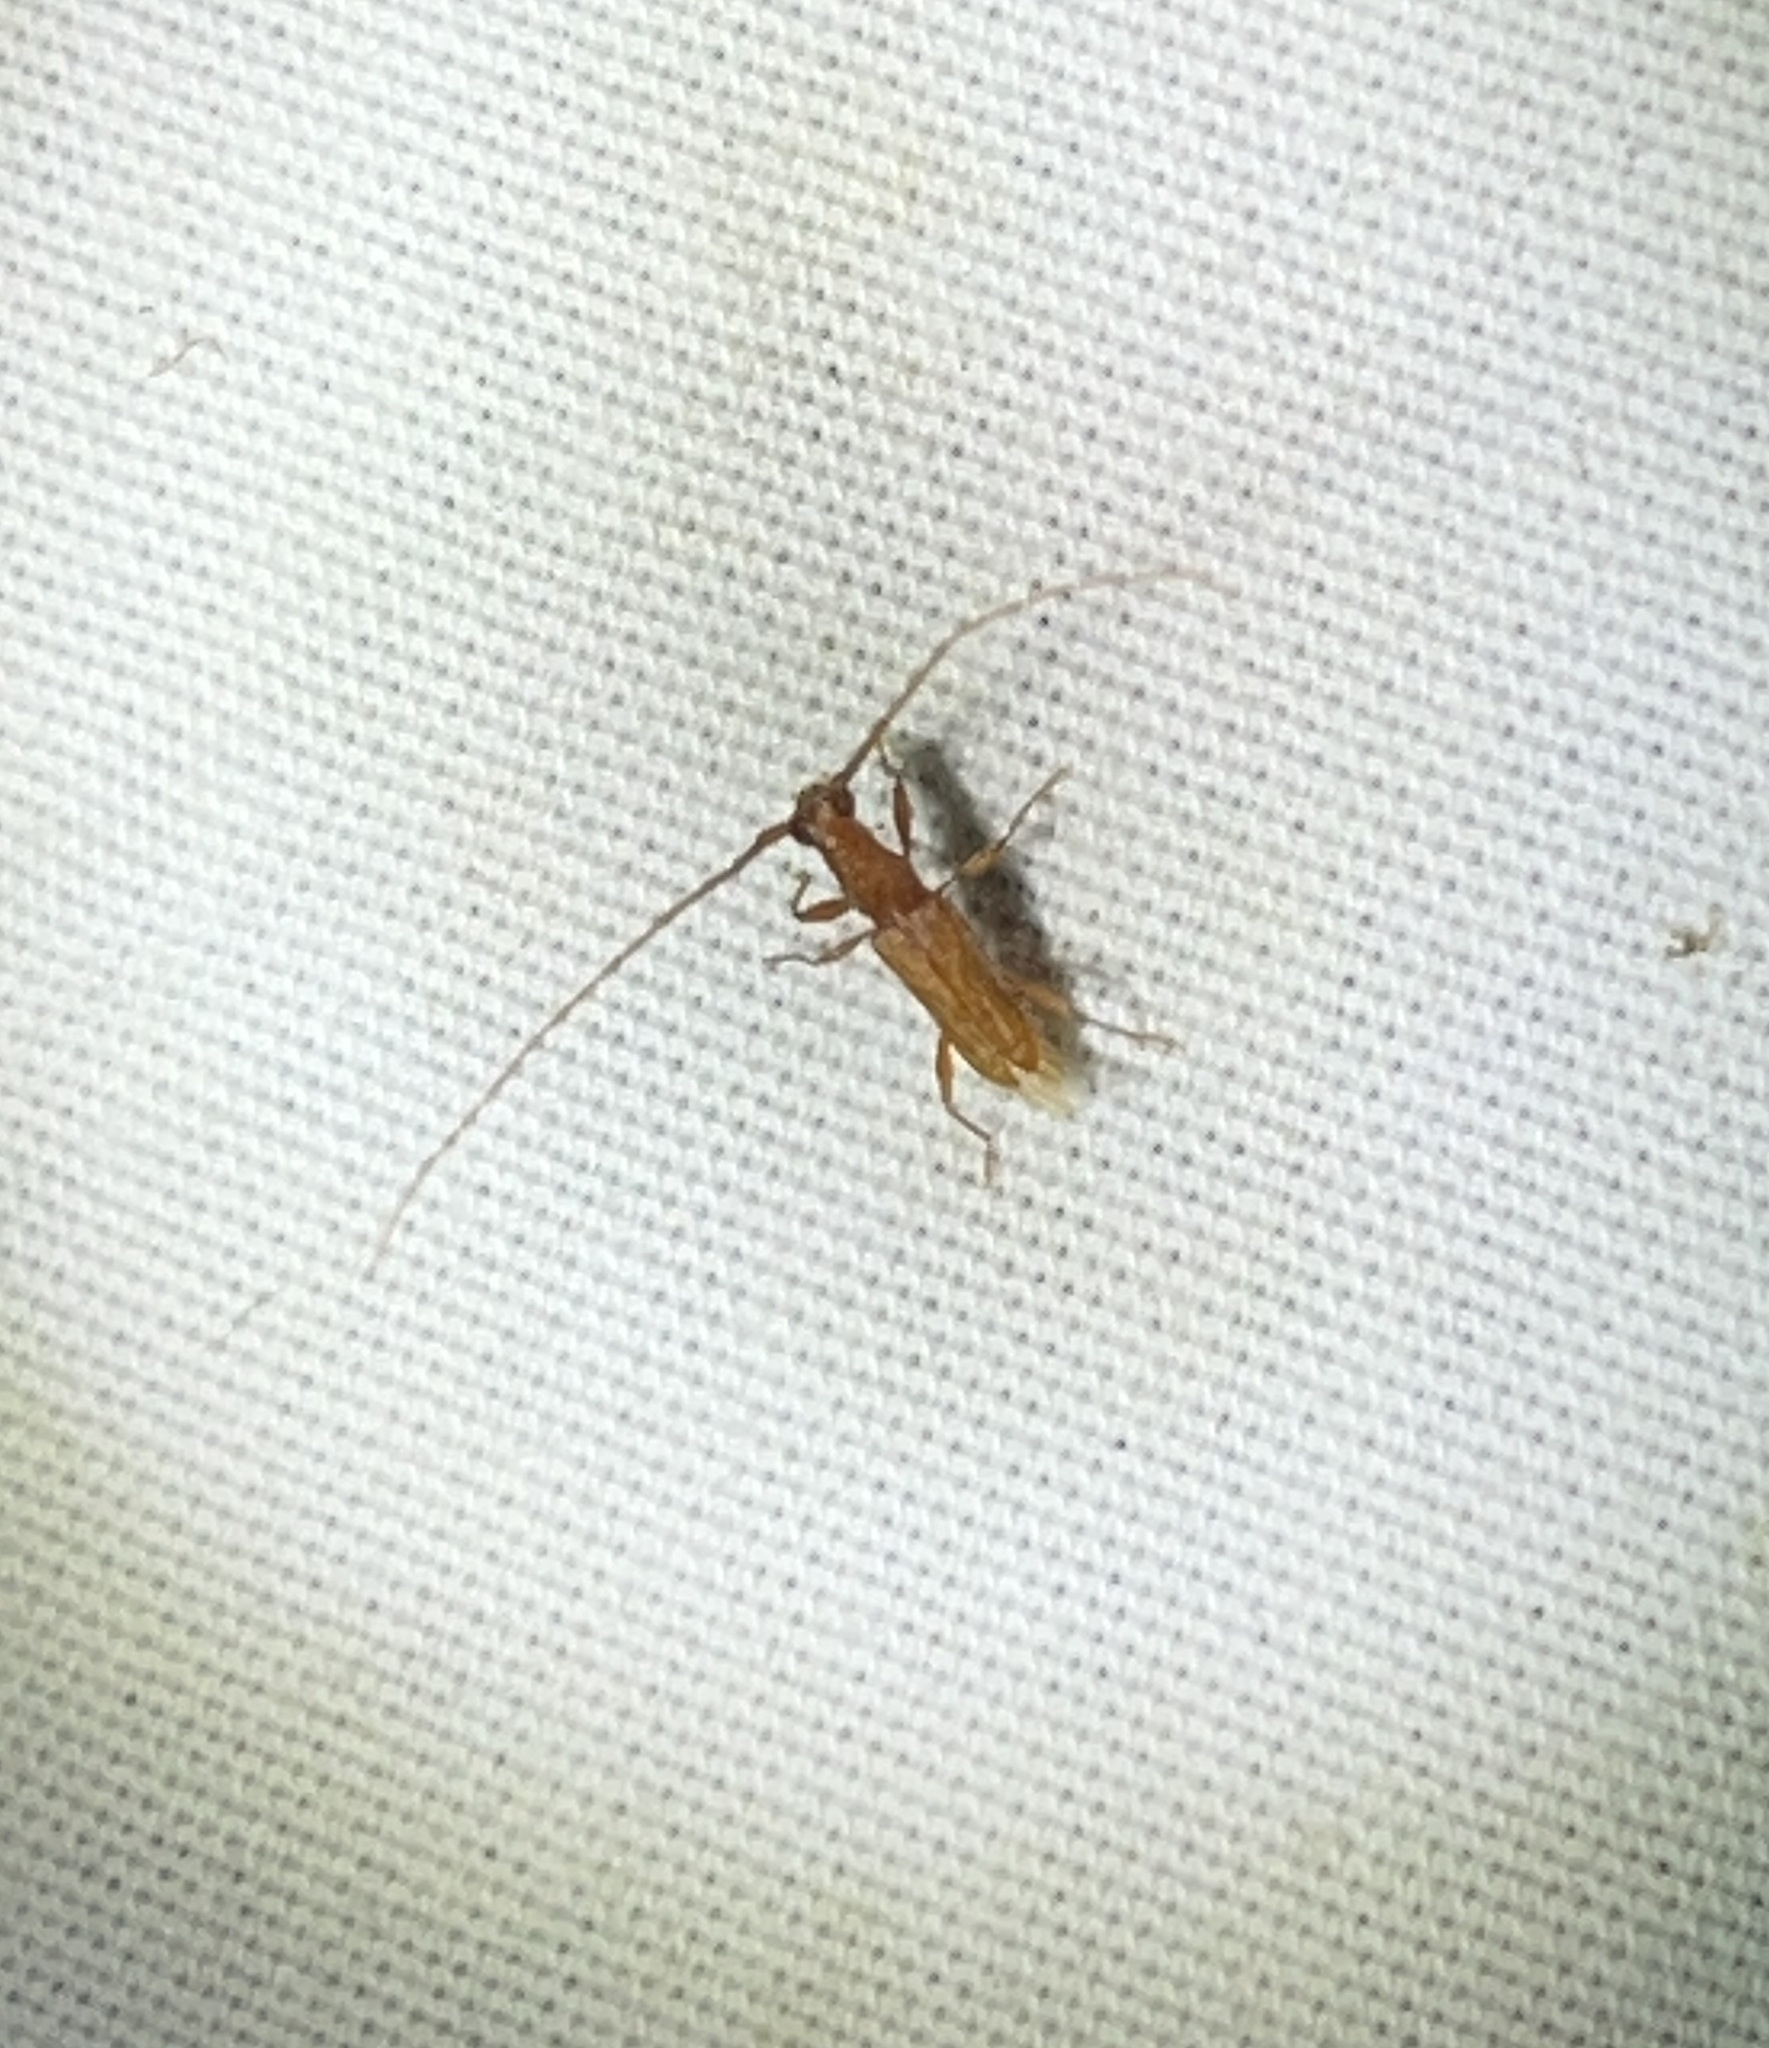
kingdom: Animalia
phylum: Arthropoda
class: Insecta
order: Coleoptera
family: Cerambycidae
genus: Hypexilis
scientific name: Hypexilis pallida
